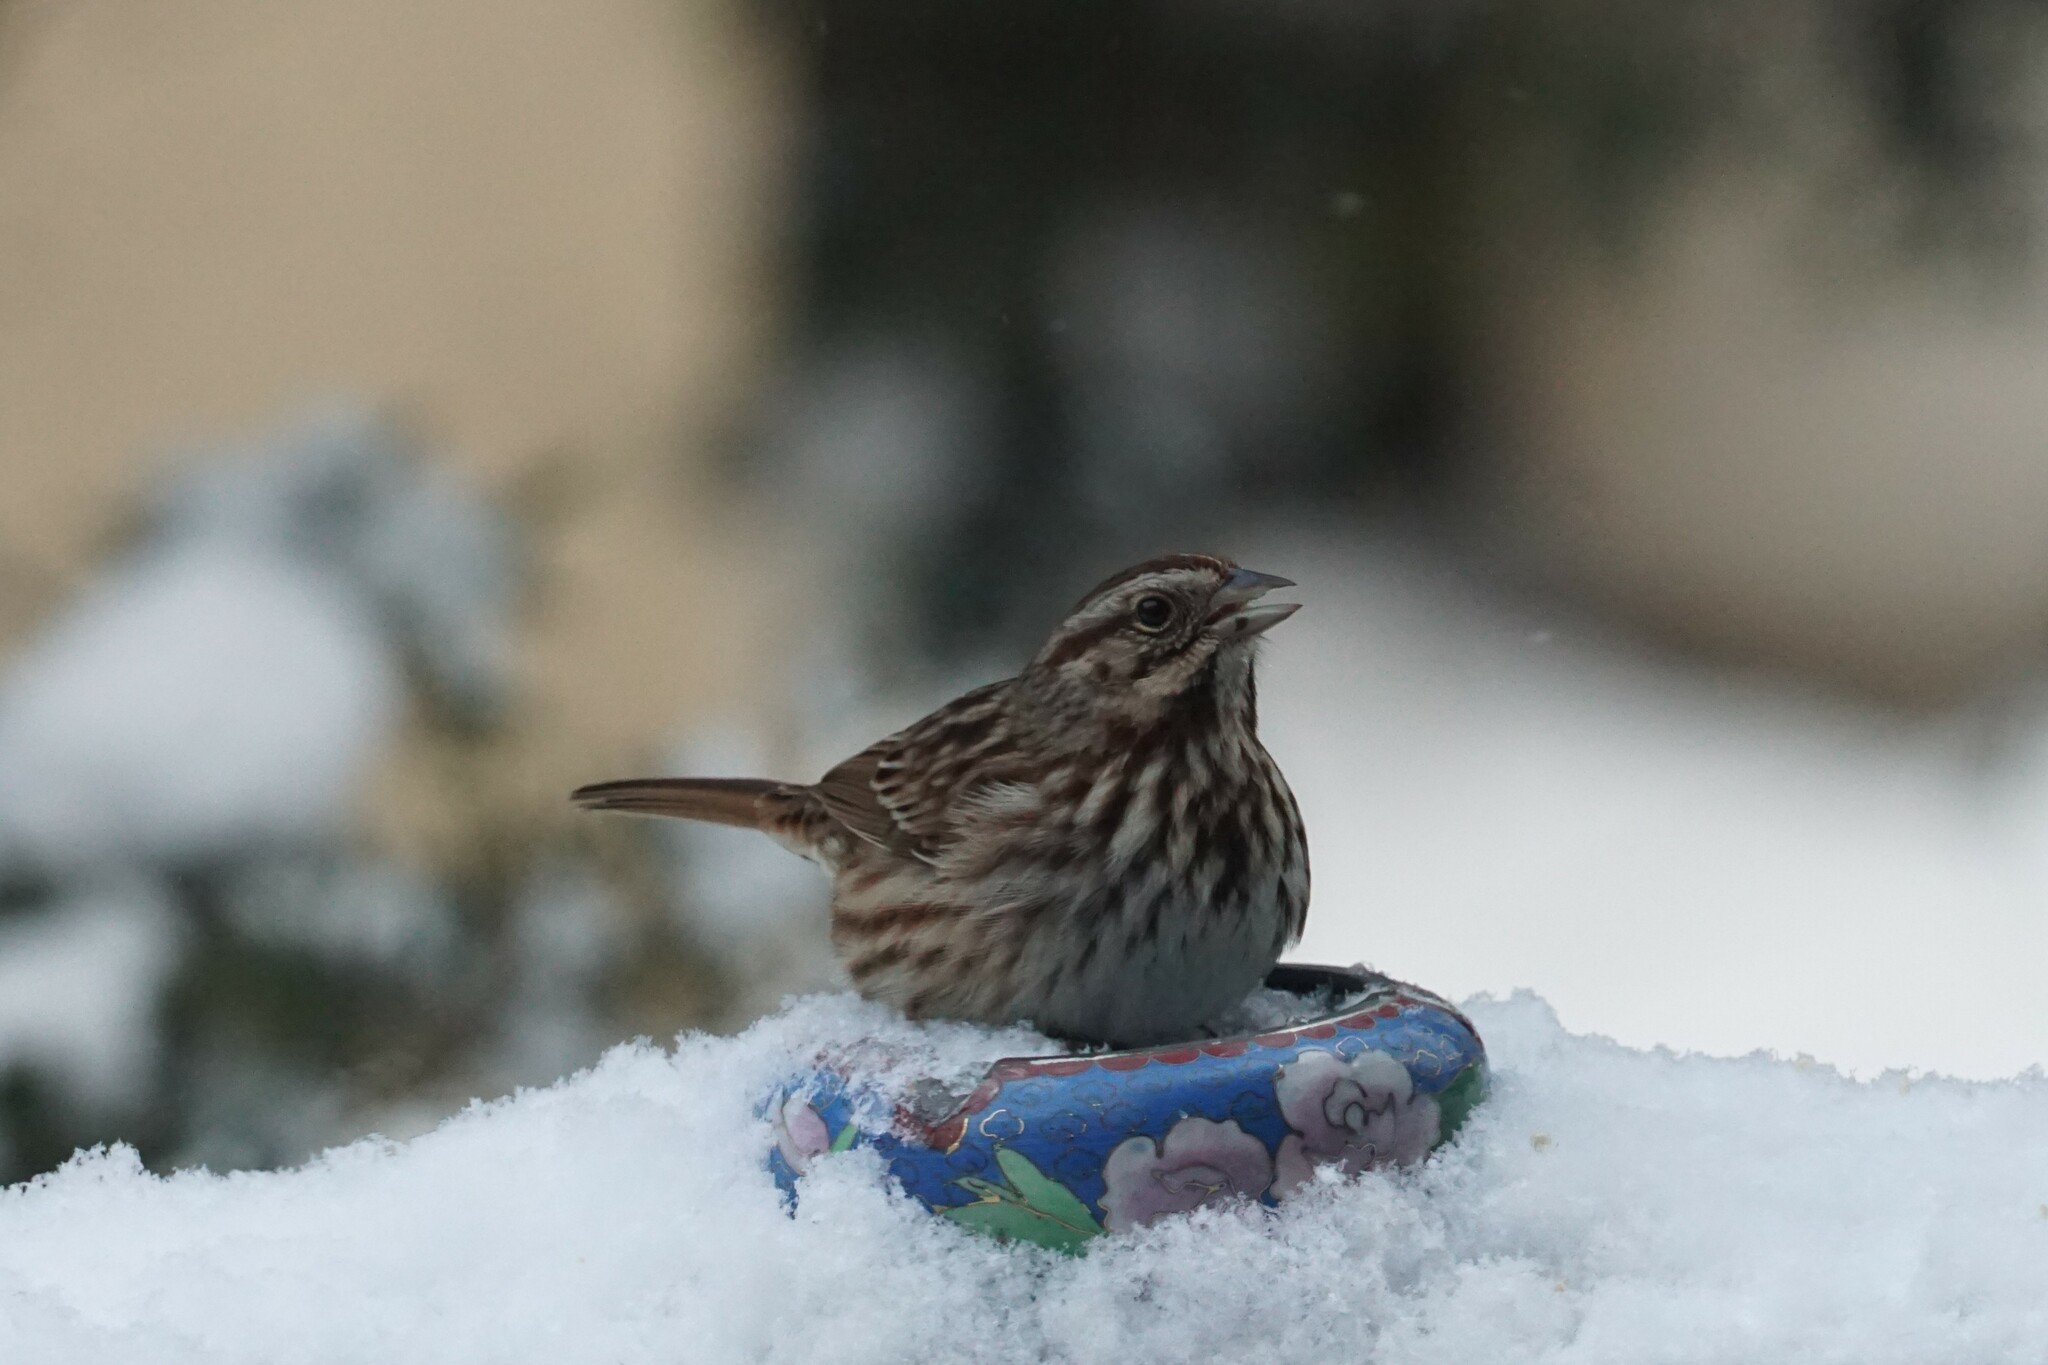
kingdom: Animalia
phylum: Chordata
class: Aves
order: Passeriformes
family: Passerellidae
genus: Melospiza
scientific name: Melospiza melodia
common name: Song sparrow
